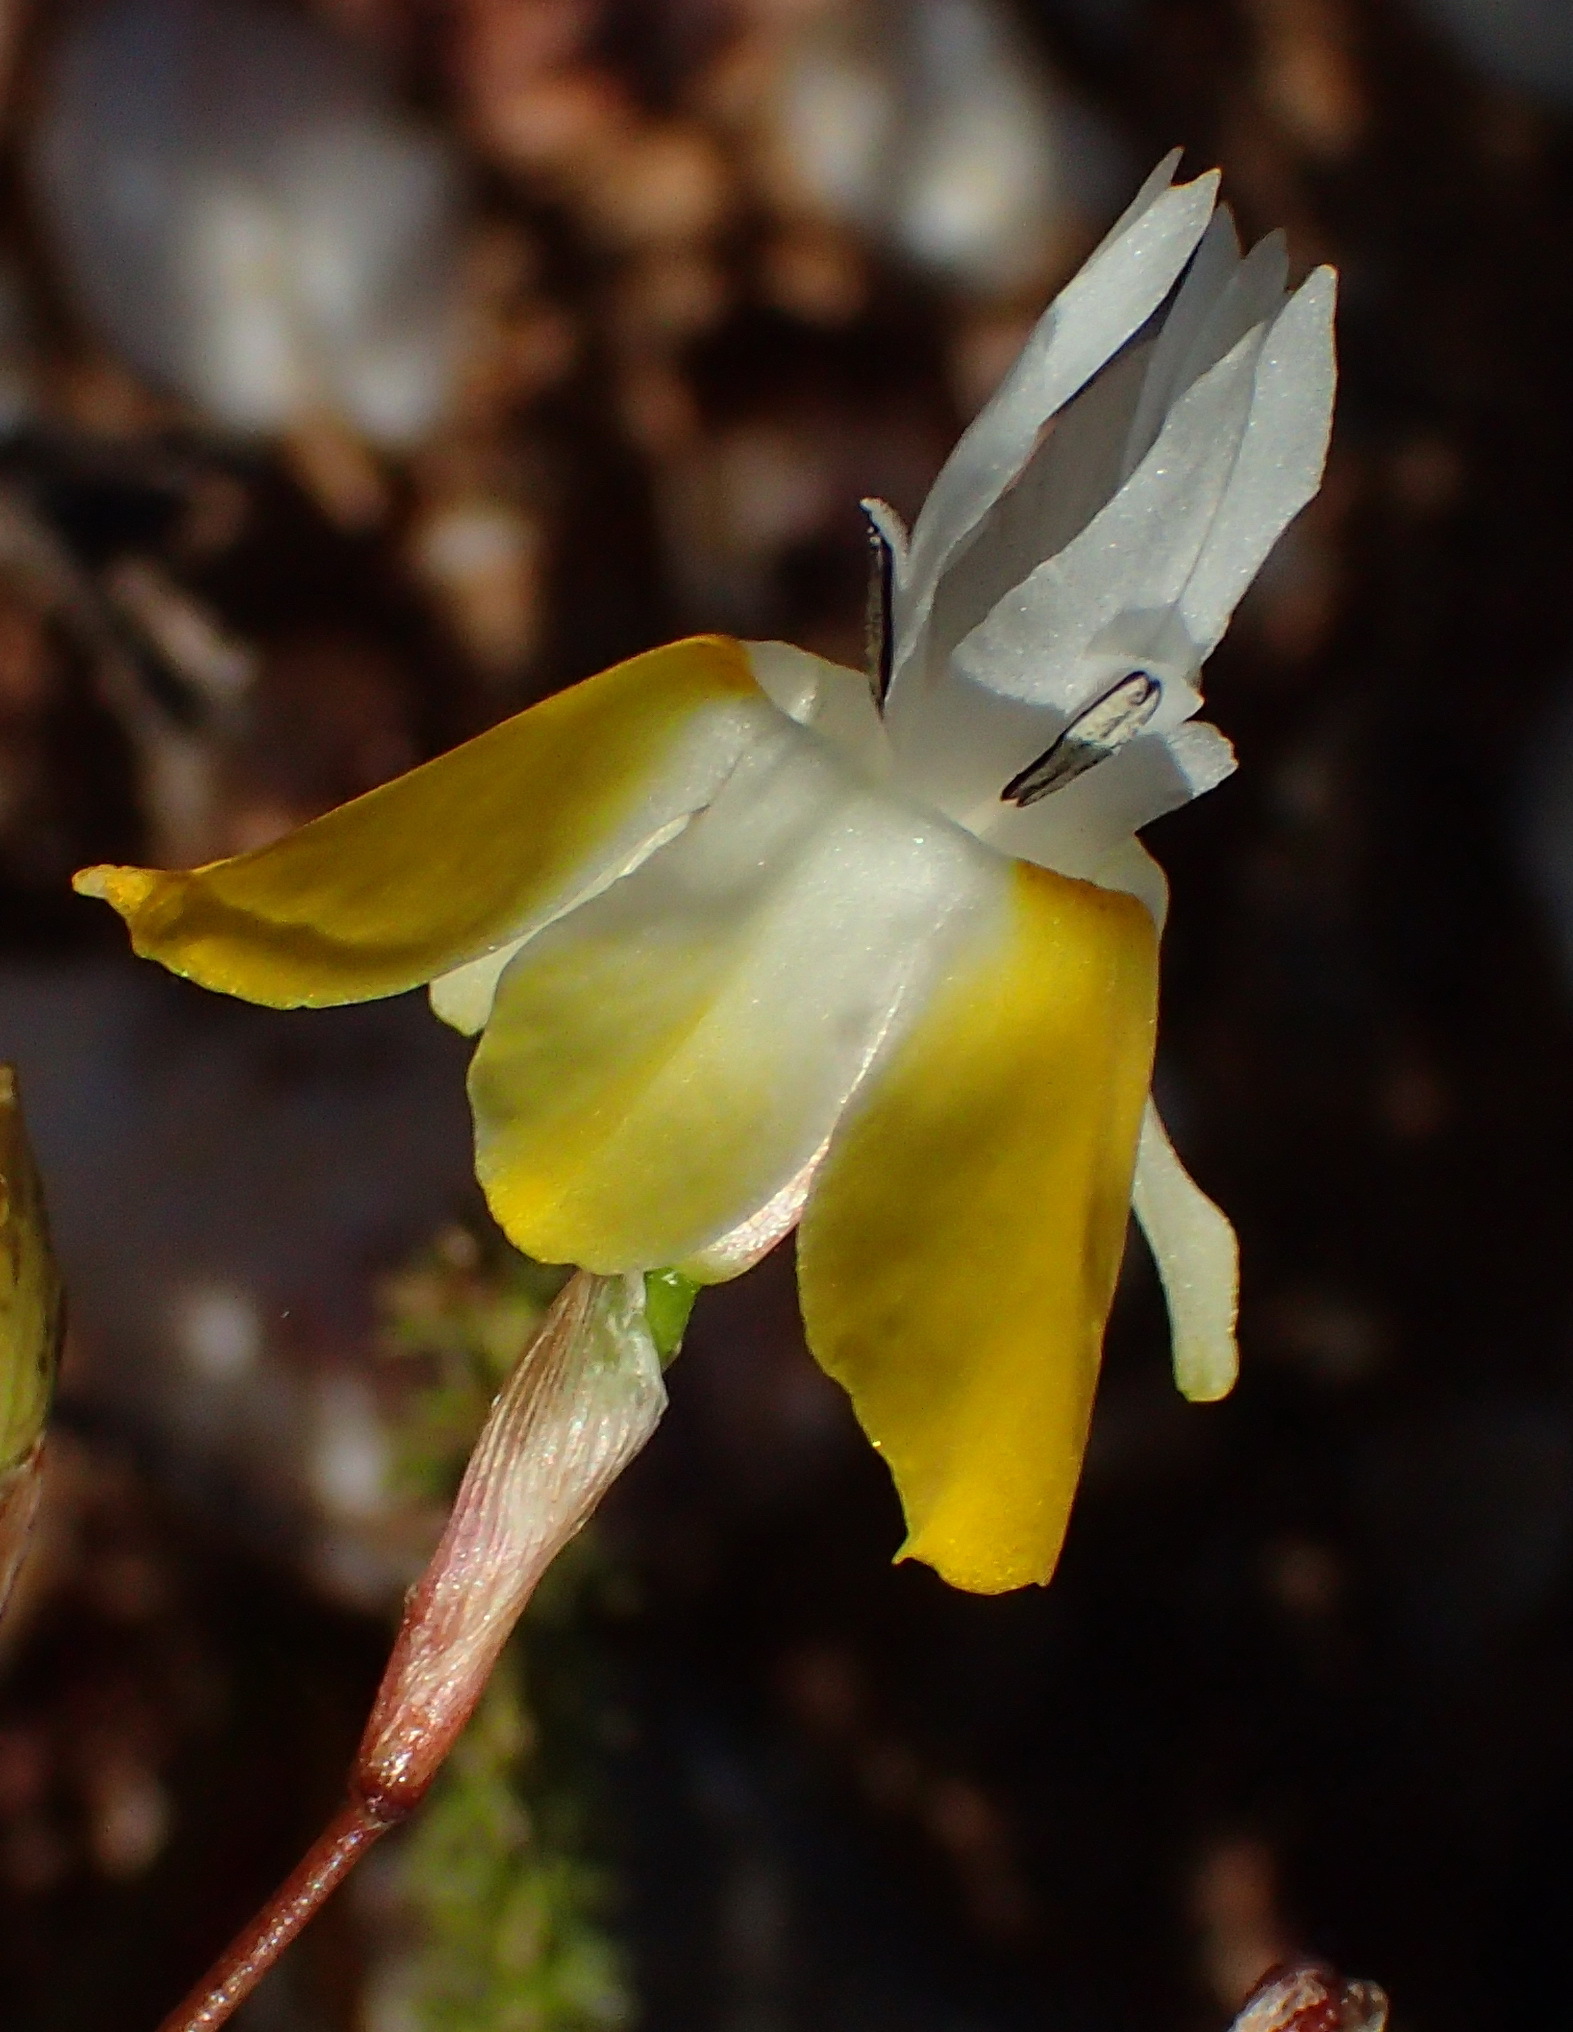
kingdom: Plantae
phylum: Tracheophyta
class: Liliopsida
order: Asparagales
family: Iridaceae
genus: Moraea
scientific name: Moraea gawleri
